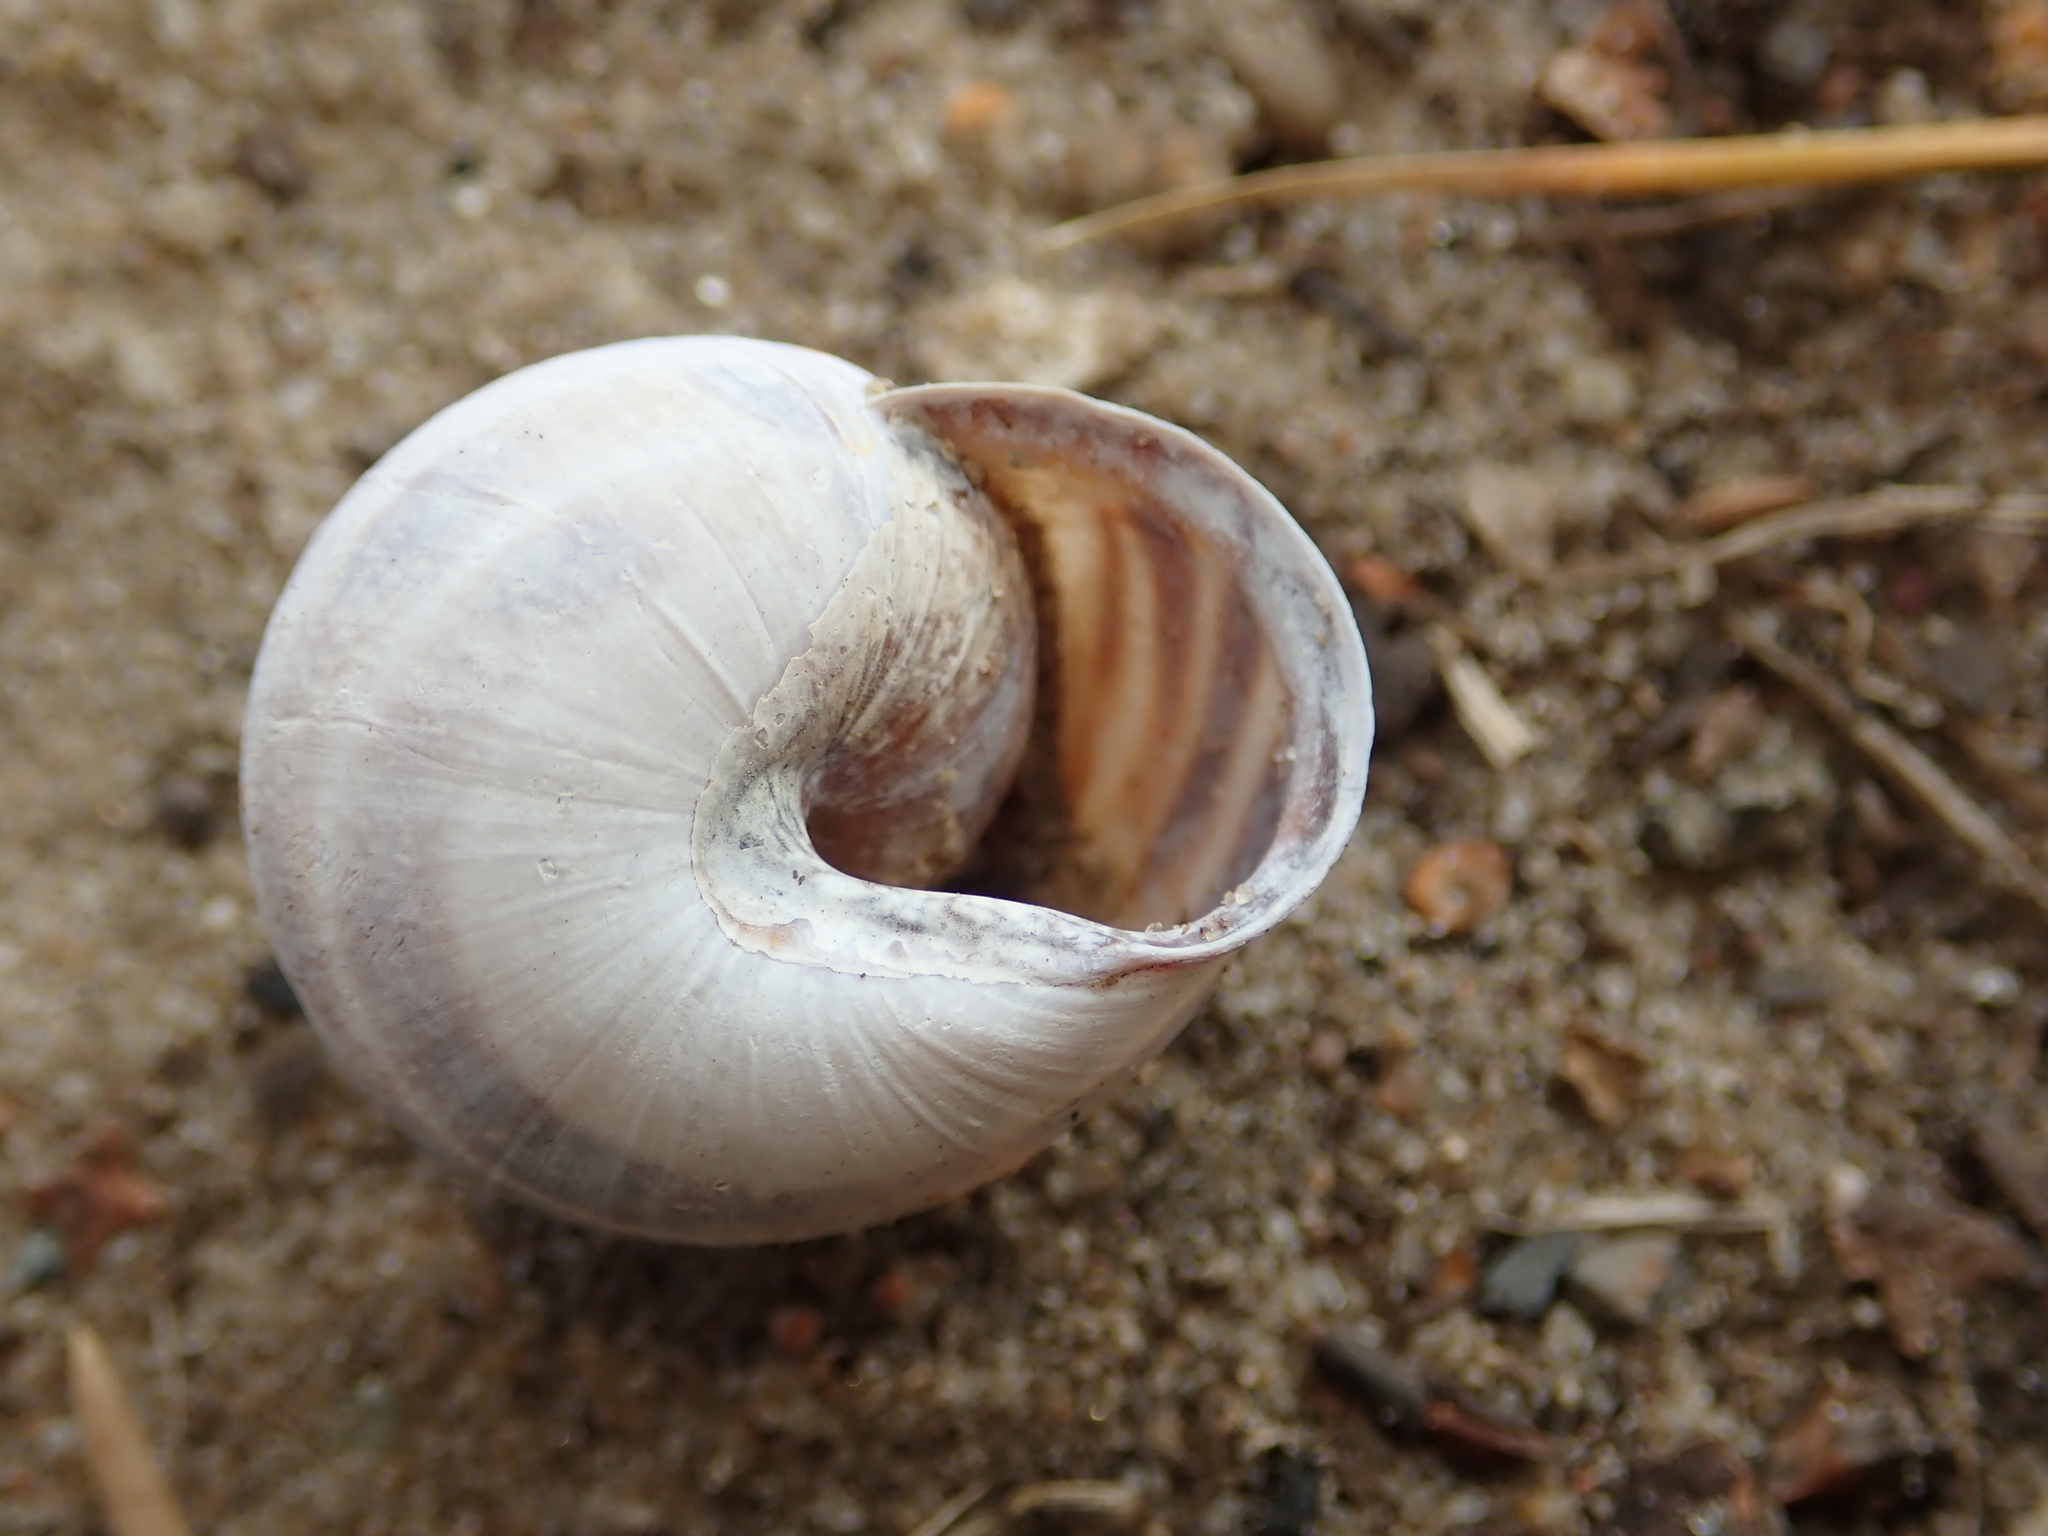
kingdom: Animalia
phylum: Mollusca
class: Gastropoda
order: Stylommatophora
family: Helicidae
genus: Cepaea
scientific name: Cepaea nemoralis
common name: Grovesnail
